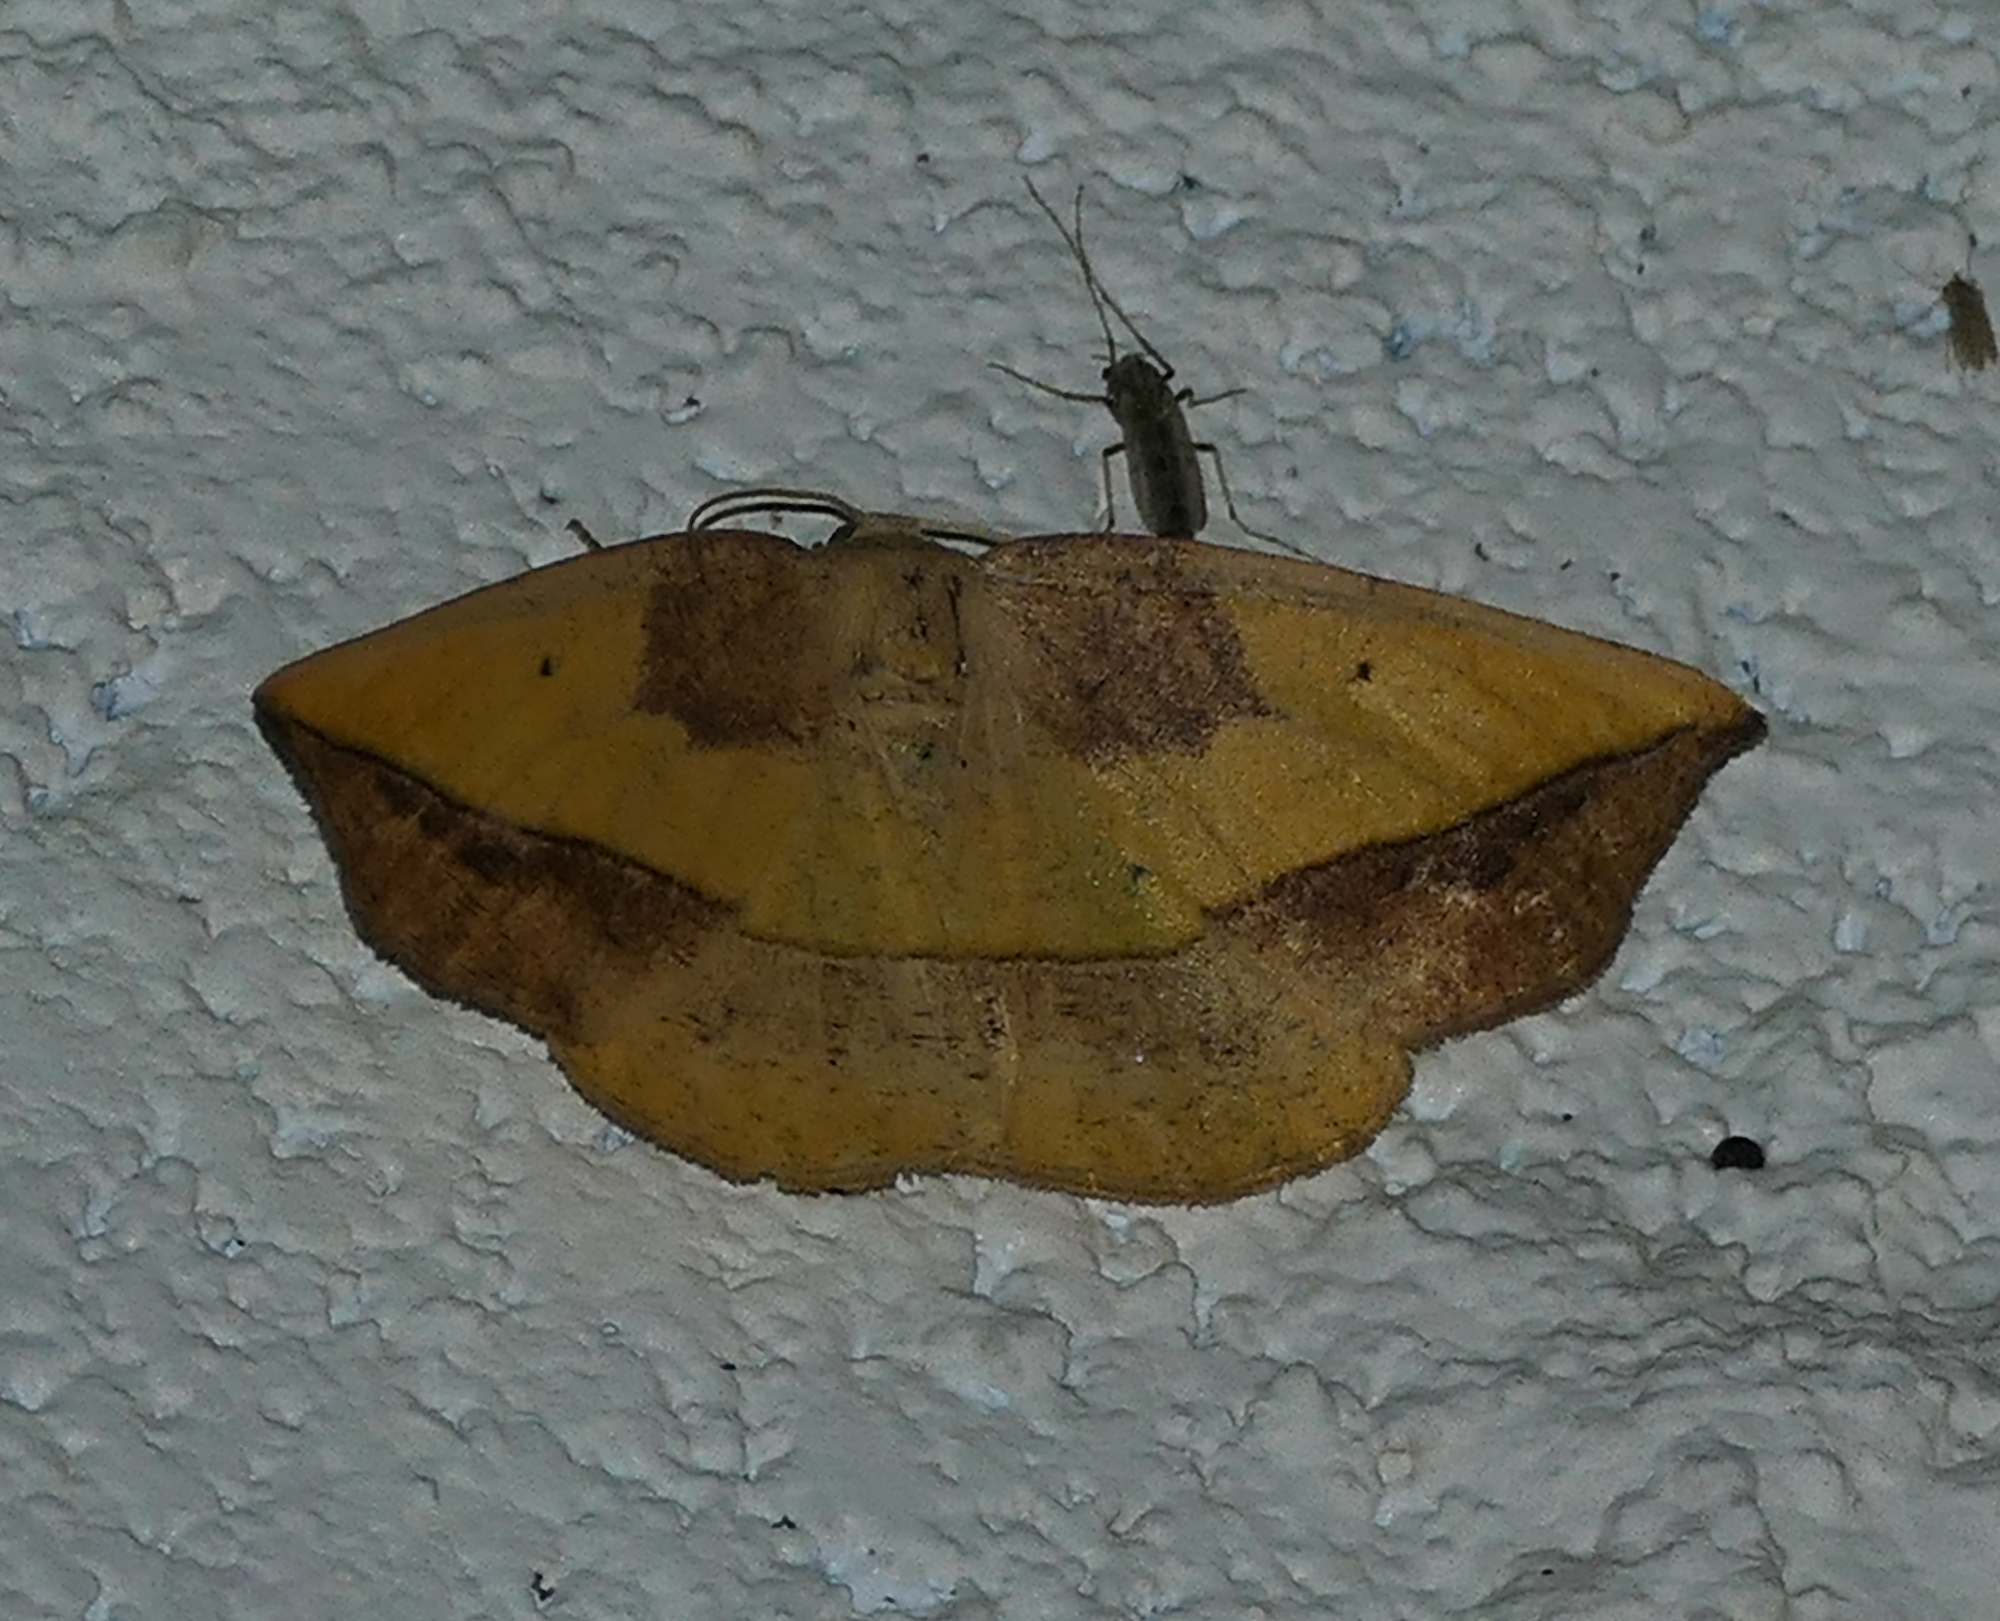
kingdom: Animalia
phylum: Arthropoda
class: Insecta
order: Lepidoptera
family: Geometridae
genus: Eusarca
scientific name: Eusarca fundaria
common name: Dark-edged eusarca moth
